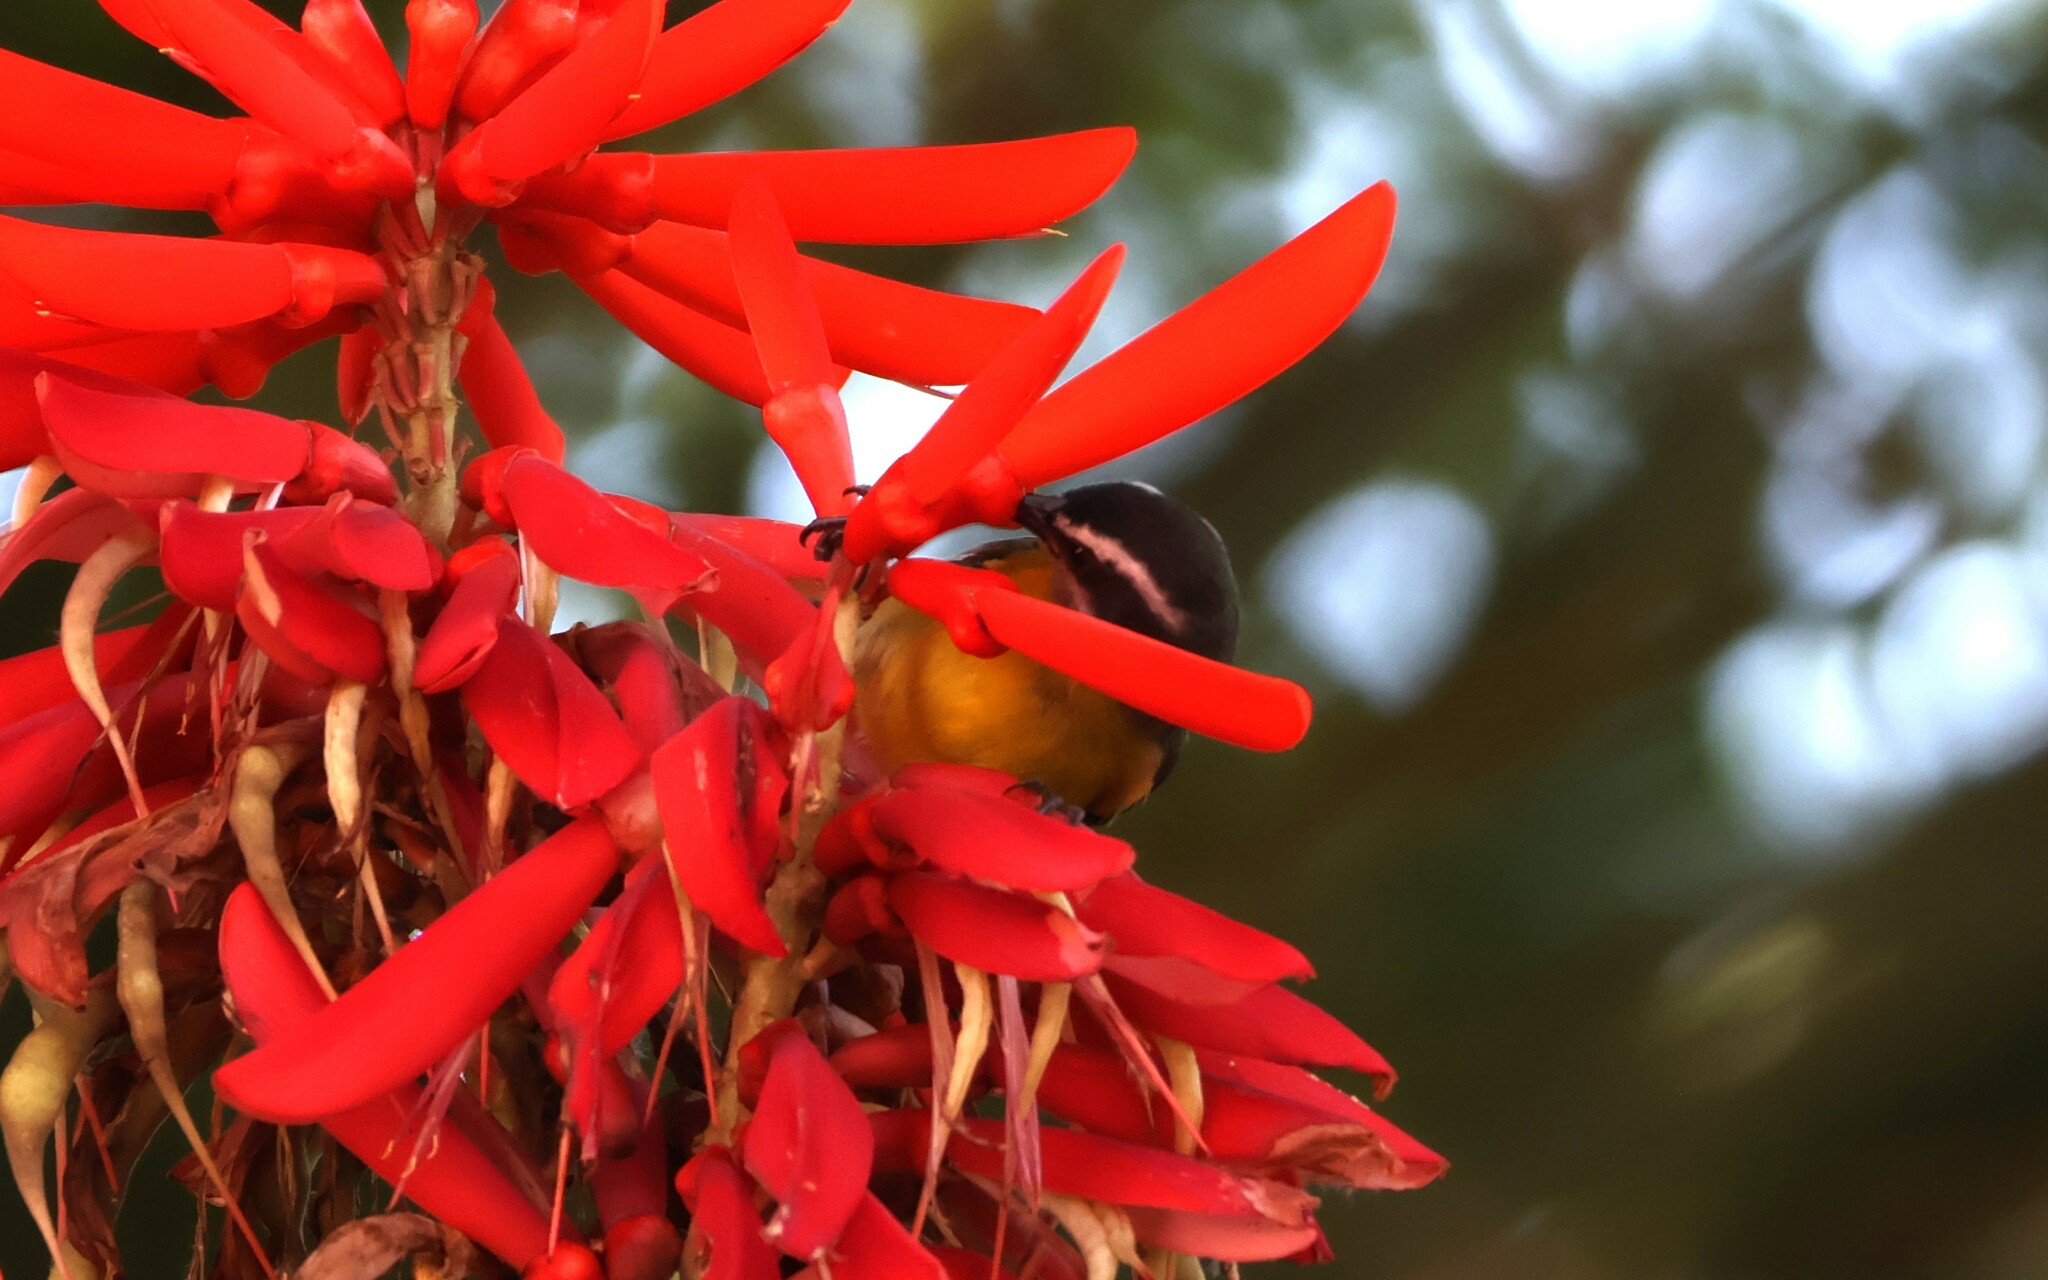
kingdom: Animalia
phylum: Chordata
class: Aves
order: Passeriformes
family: Thraupidae
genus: Coereba
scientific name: Coereba flaveola
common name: Bananaquit
